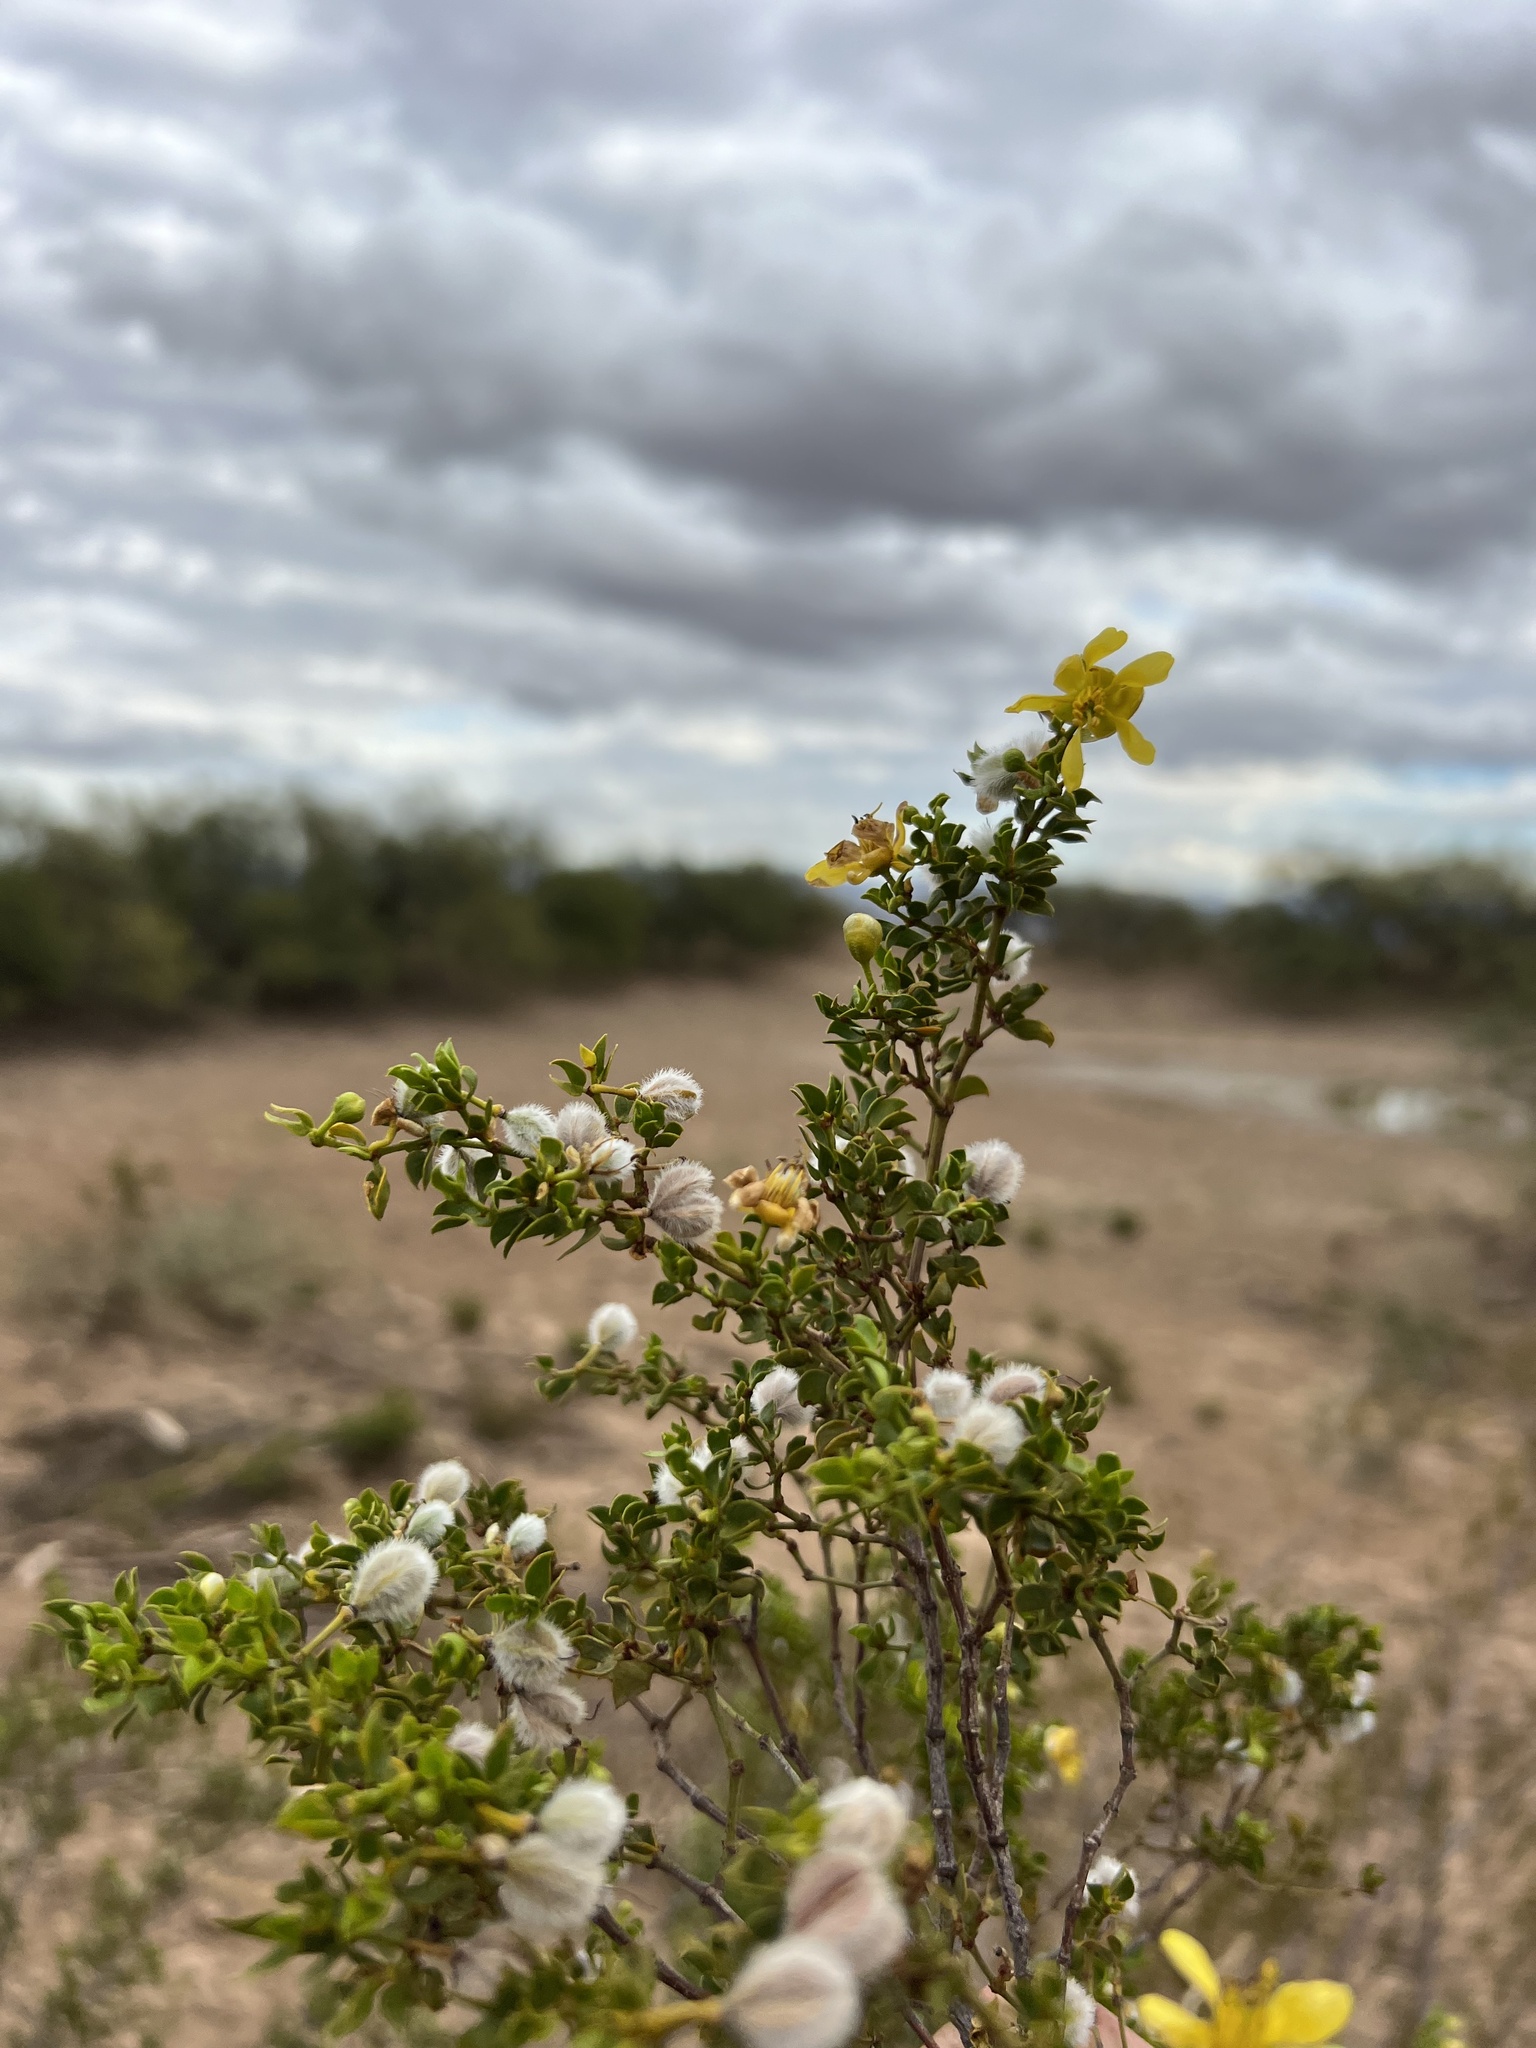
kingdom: Plantae
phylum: Tracheophyta
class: Magnoliopsida
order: Zygophyllales
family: Zygophyllaceae
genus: Larrea
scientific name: Larrea tridentata
